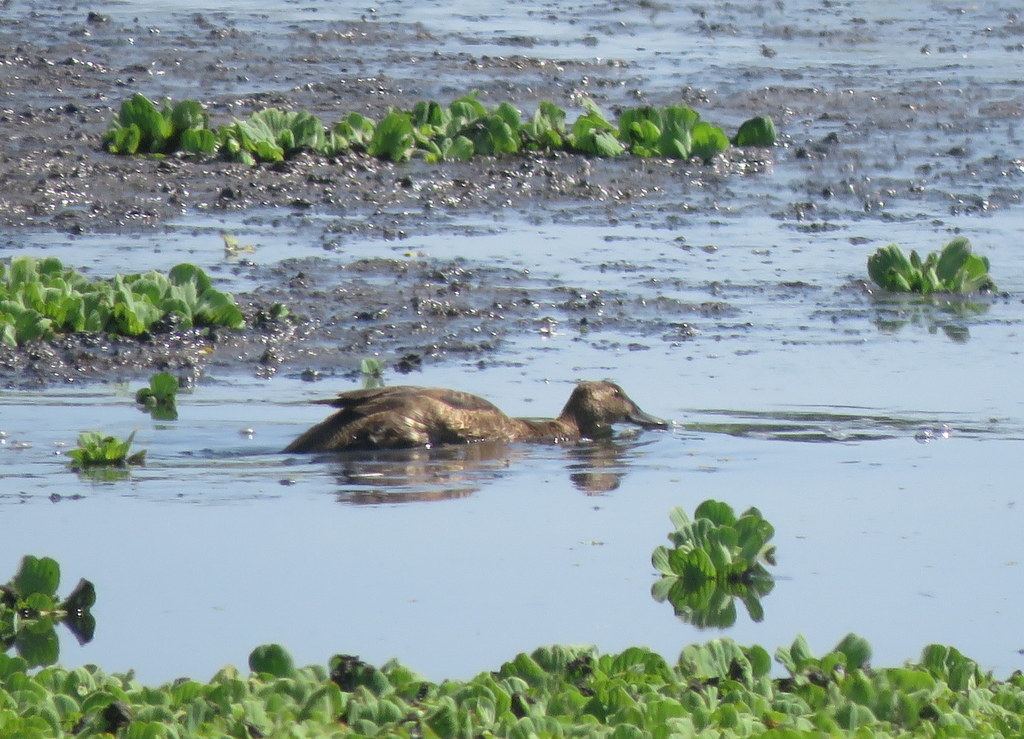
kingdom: Animalia
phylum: Chordata
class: Aves
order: Anseriformes
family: Anatidae
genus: Heteronetta
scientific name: Heteronetta atricapilla
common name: Black-headed duck
